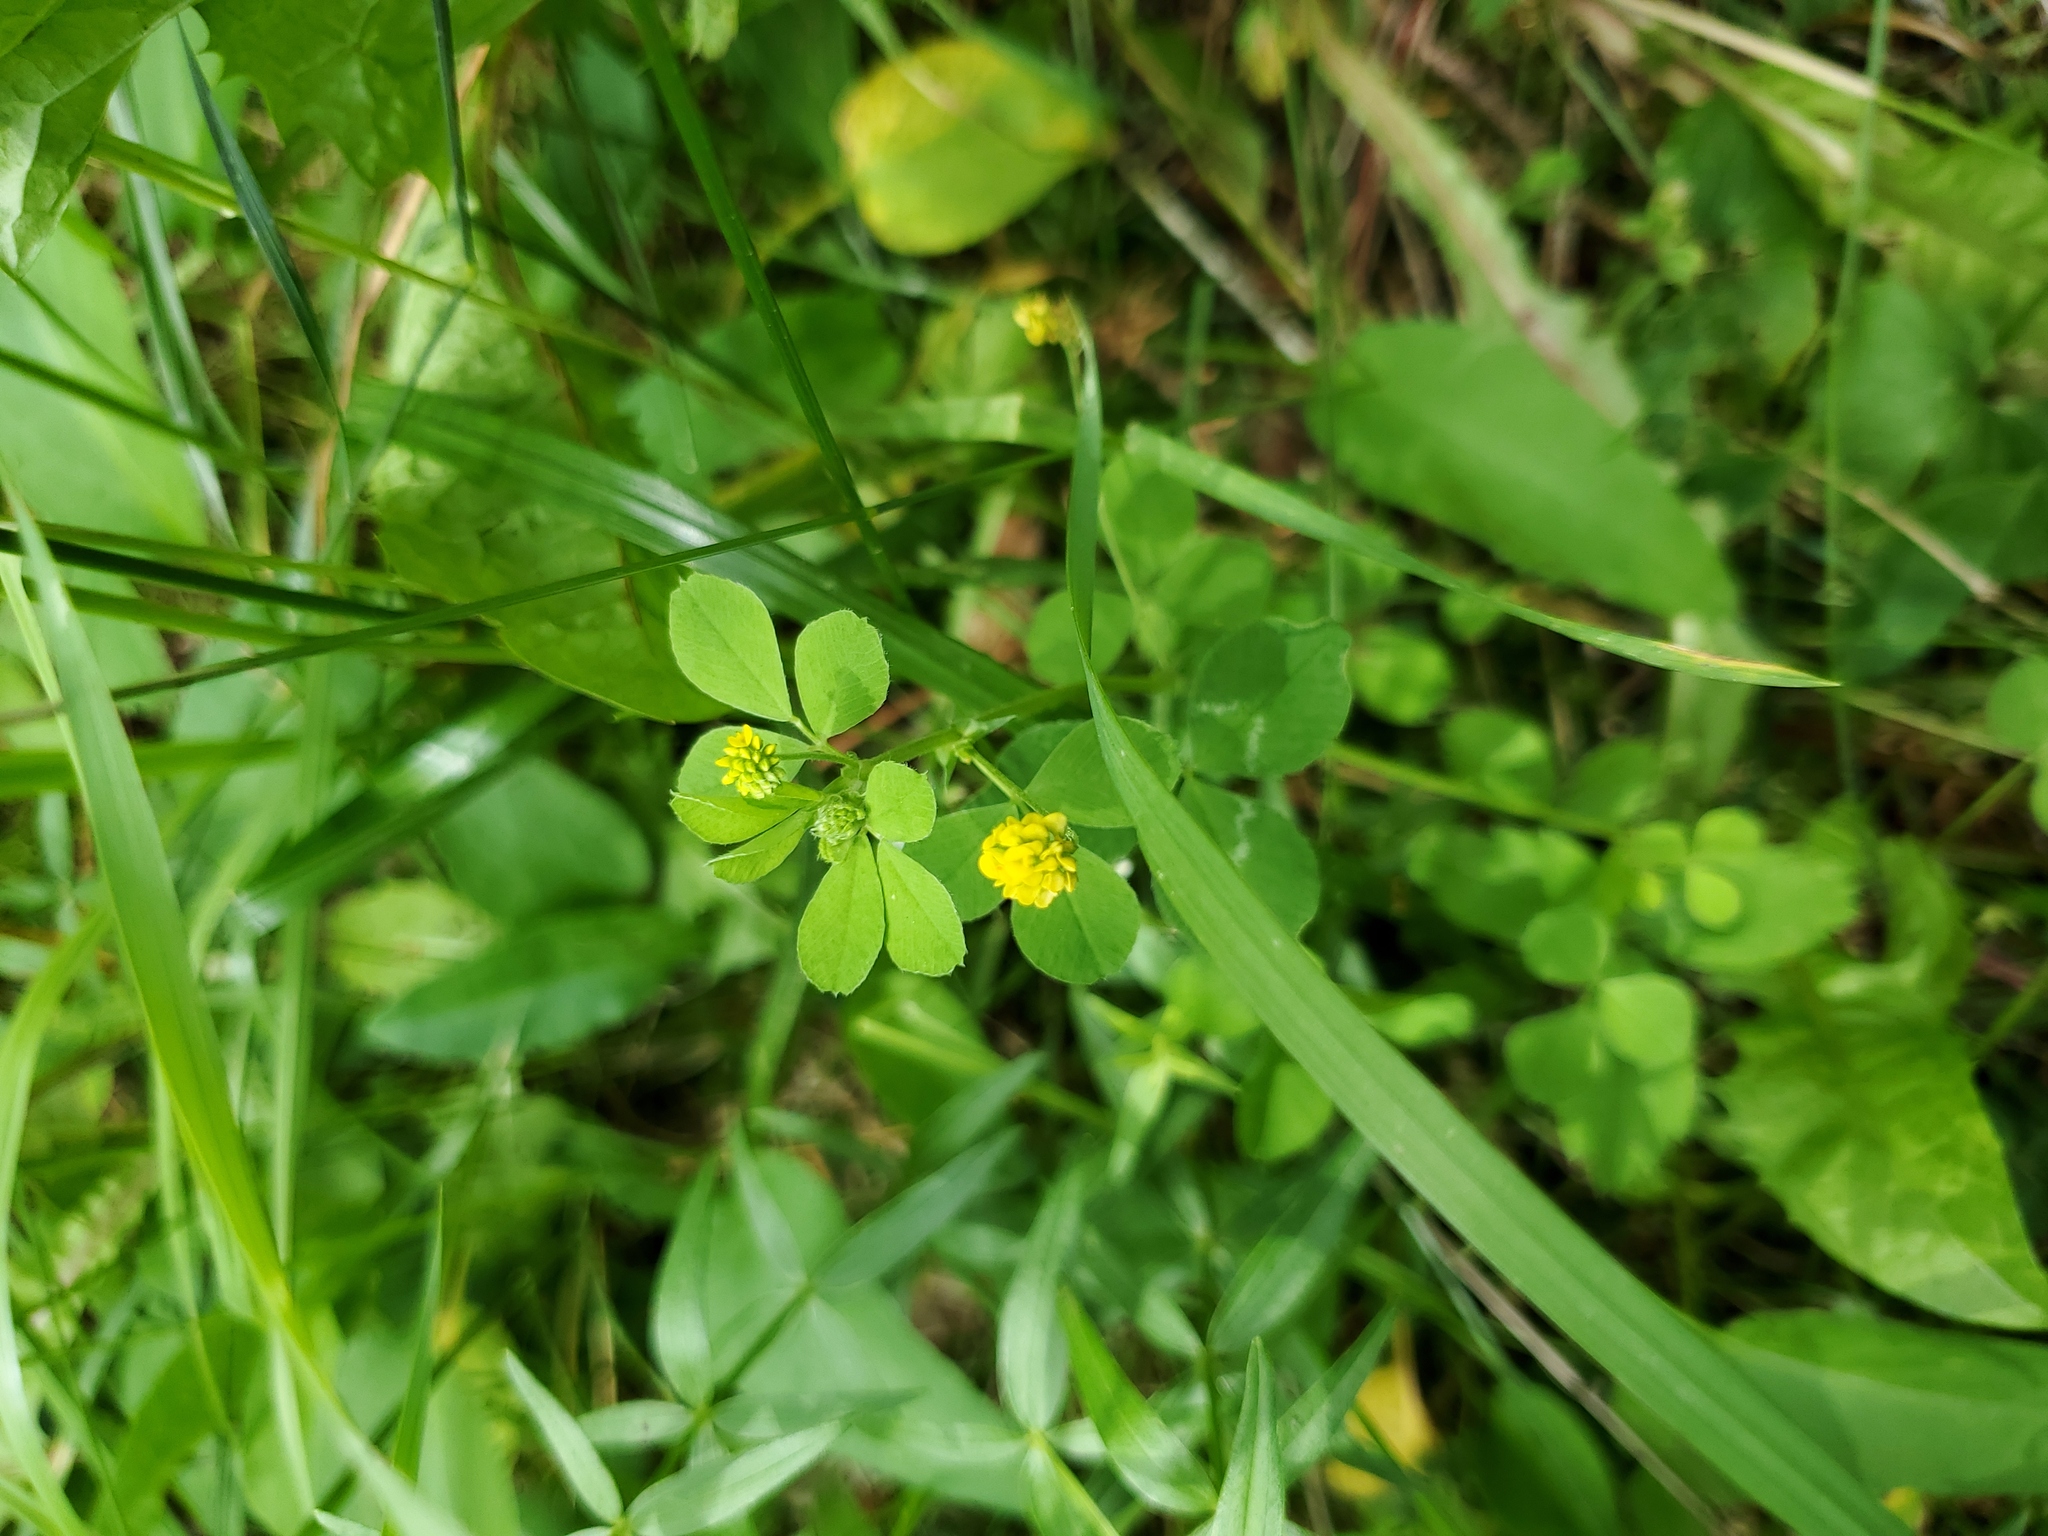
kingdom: Plantae
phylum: Tracheophyta
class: Magnoliopsida
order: Fabales
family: Fabaceae
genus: Medicago
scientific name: Medicago lupulina
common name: Black medick
